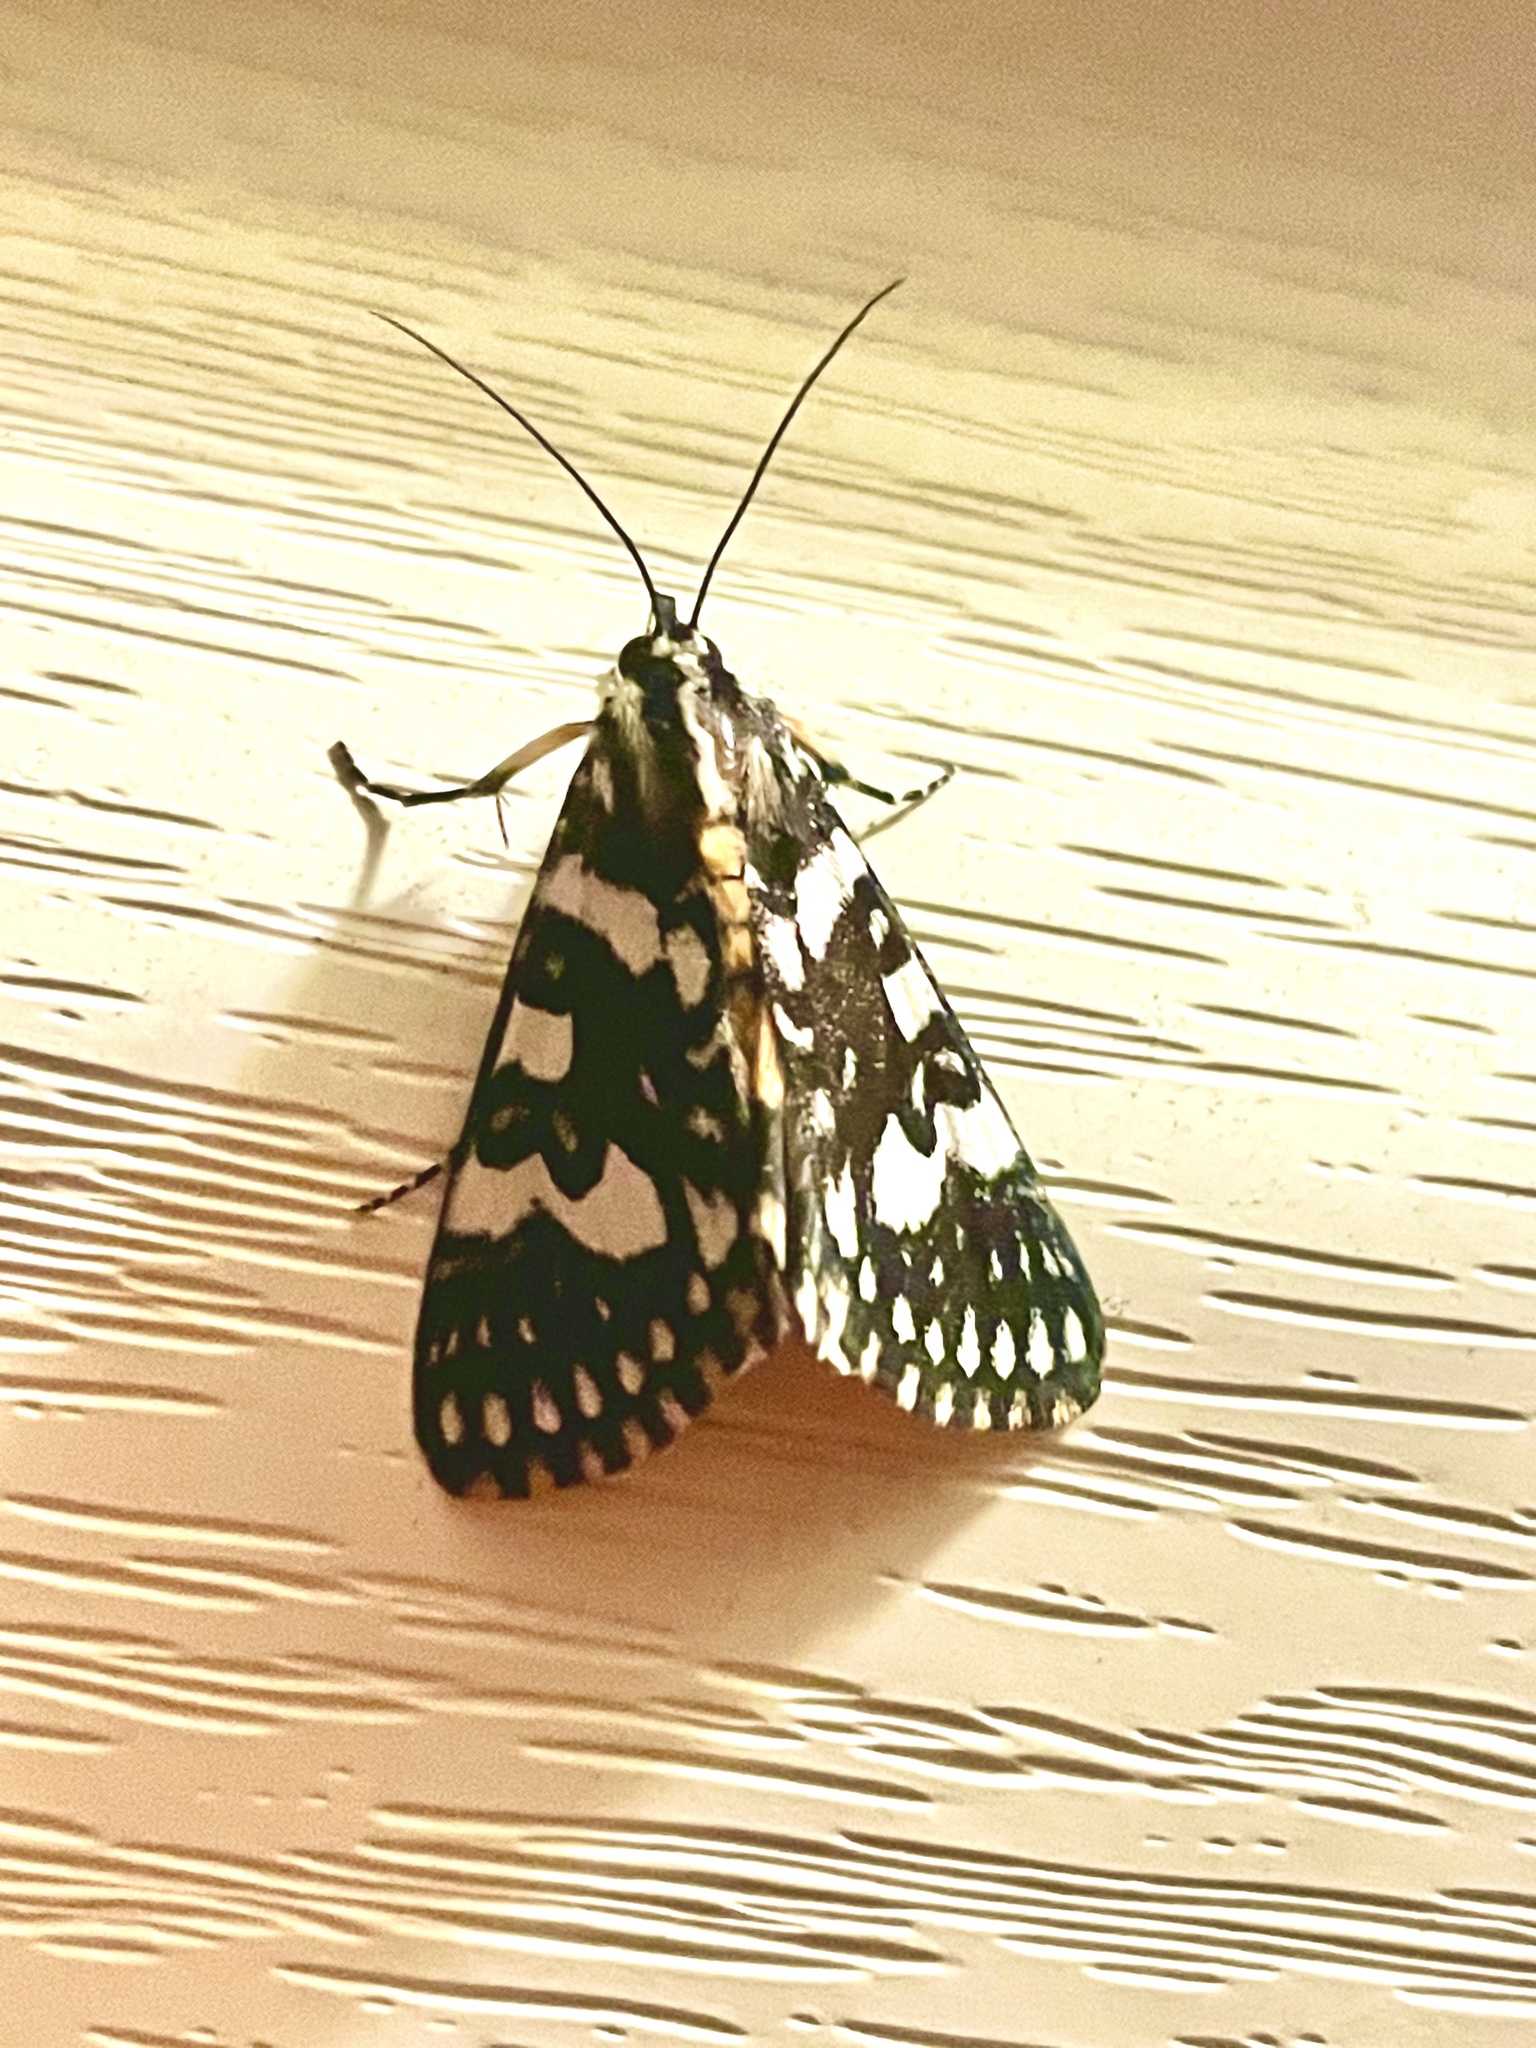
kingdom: Animalia
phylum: Arthropoda
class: Insecta
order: Lepidoptera
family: Noctuidae
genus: Ipanica
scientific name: Ipanica cornigera
